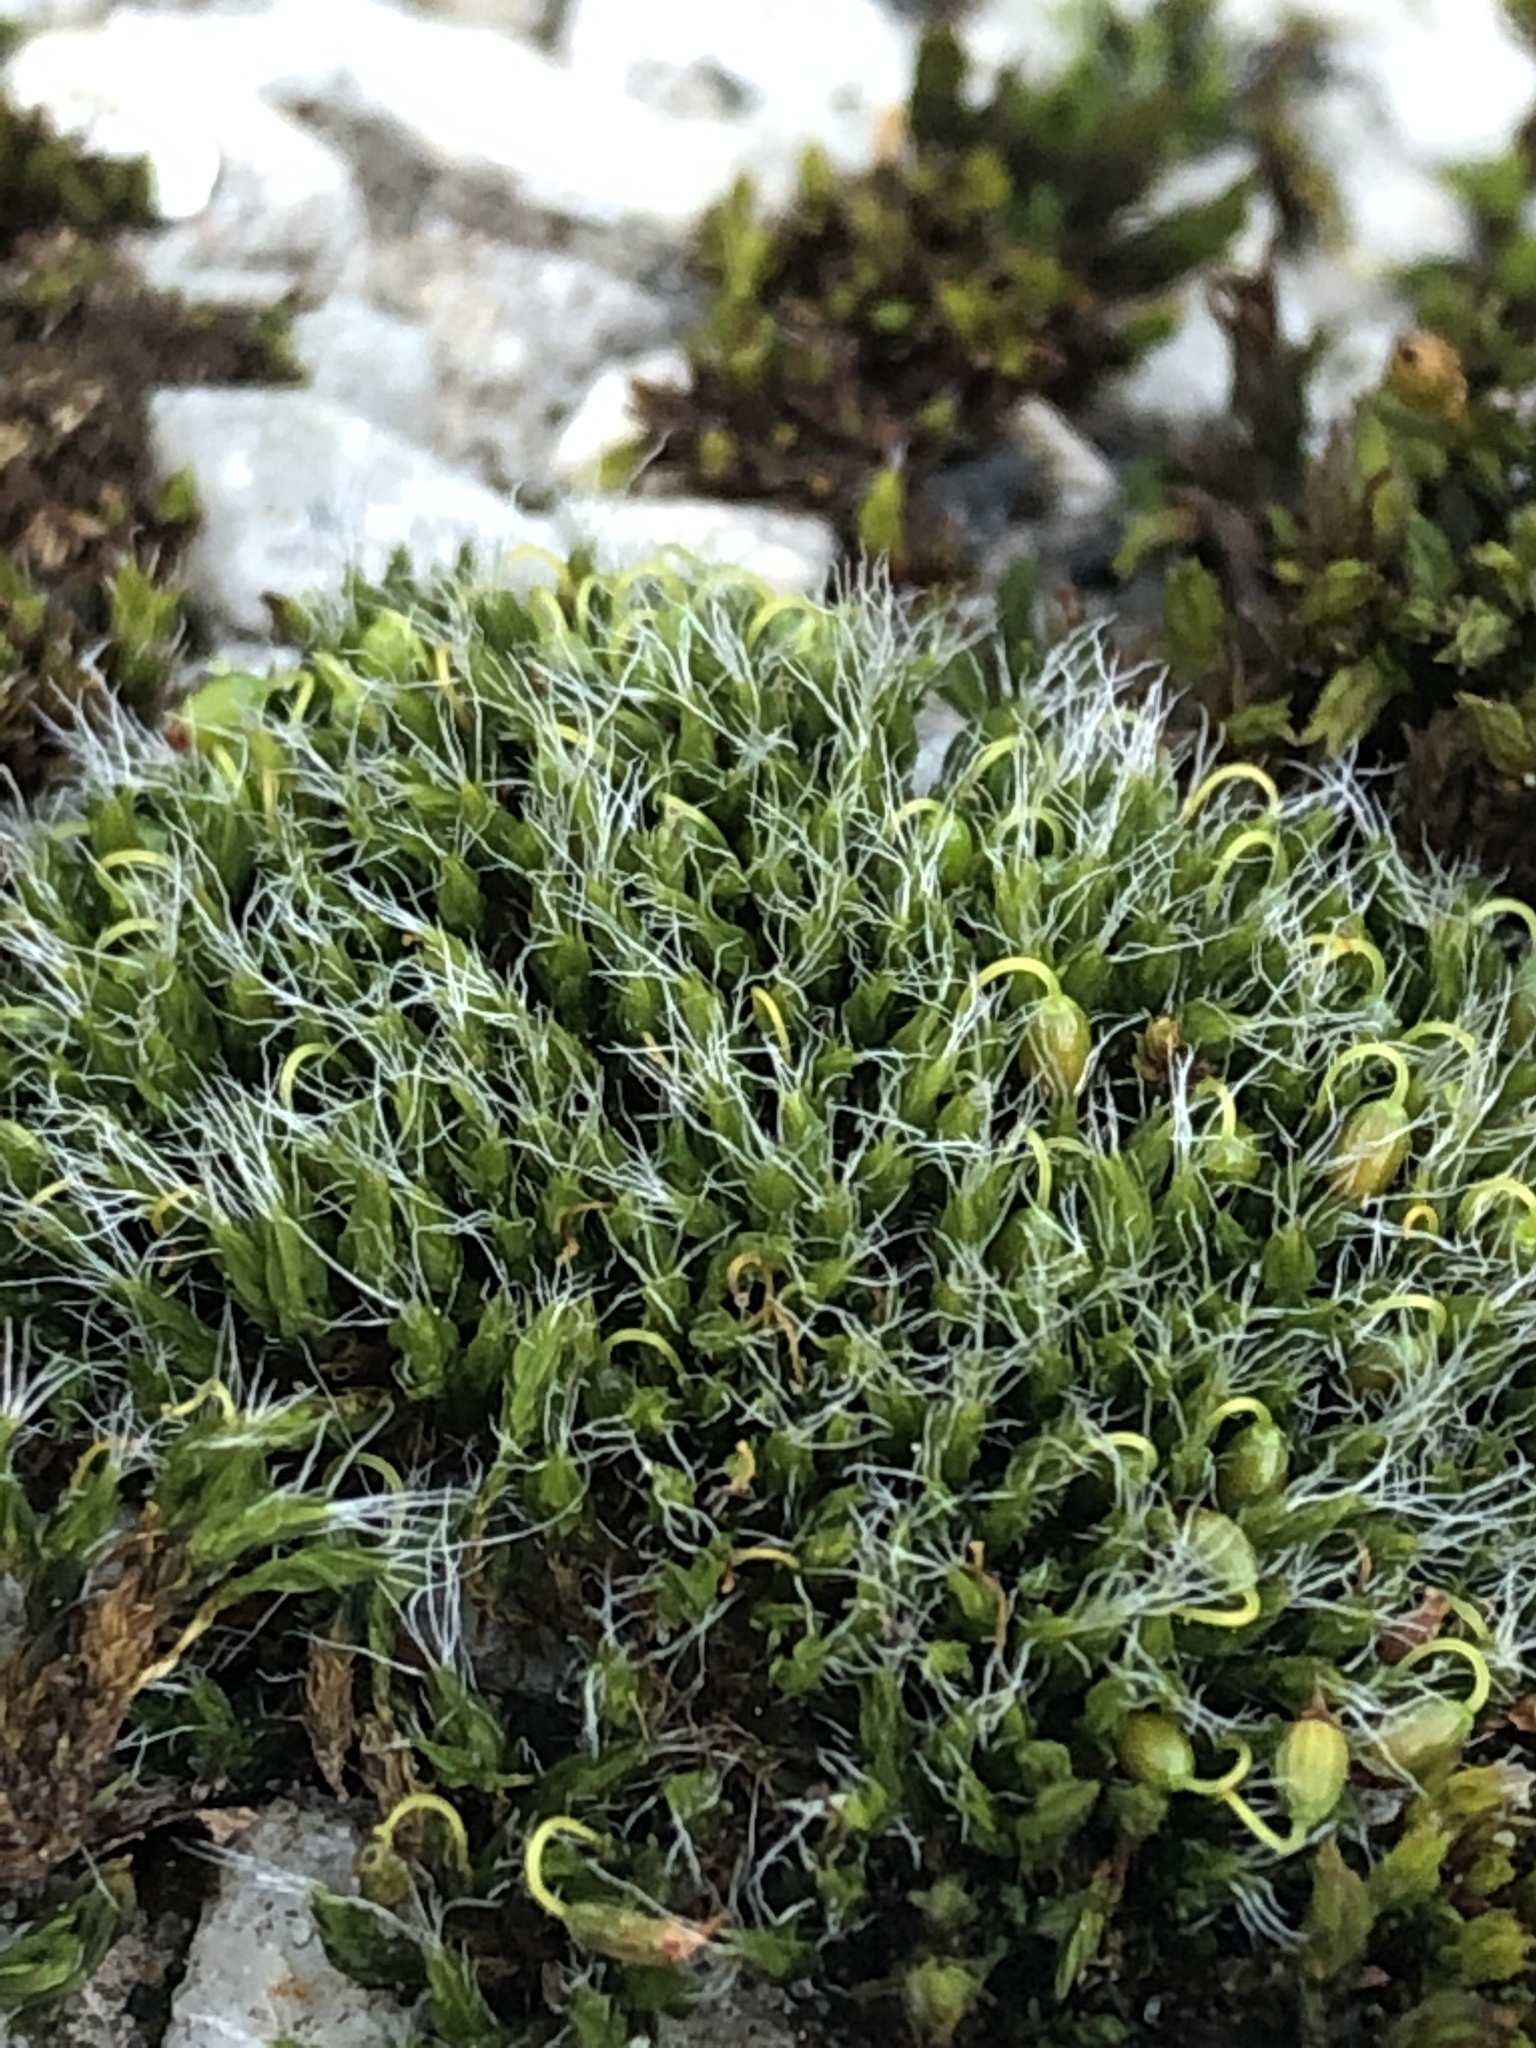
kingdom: Plantae
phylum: Bryophyta
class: Bryopsida
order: Grimmiales
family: Grimmiaceae
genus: Grimmia
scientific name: Grimmia pulvinata
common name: Grey-cushioned grimmia
